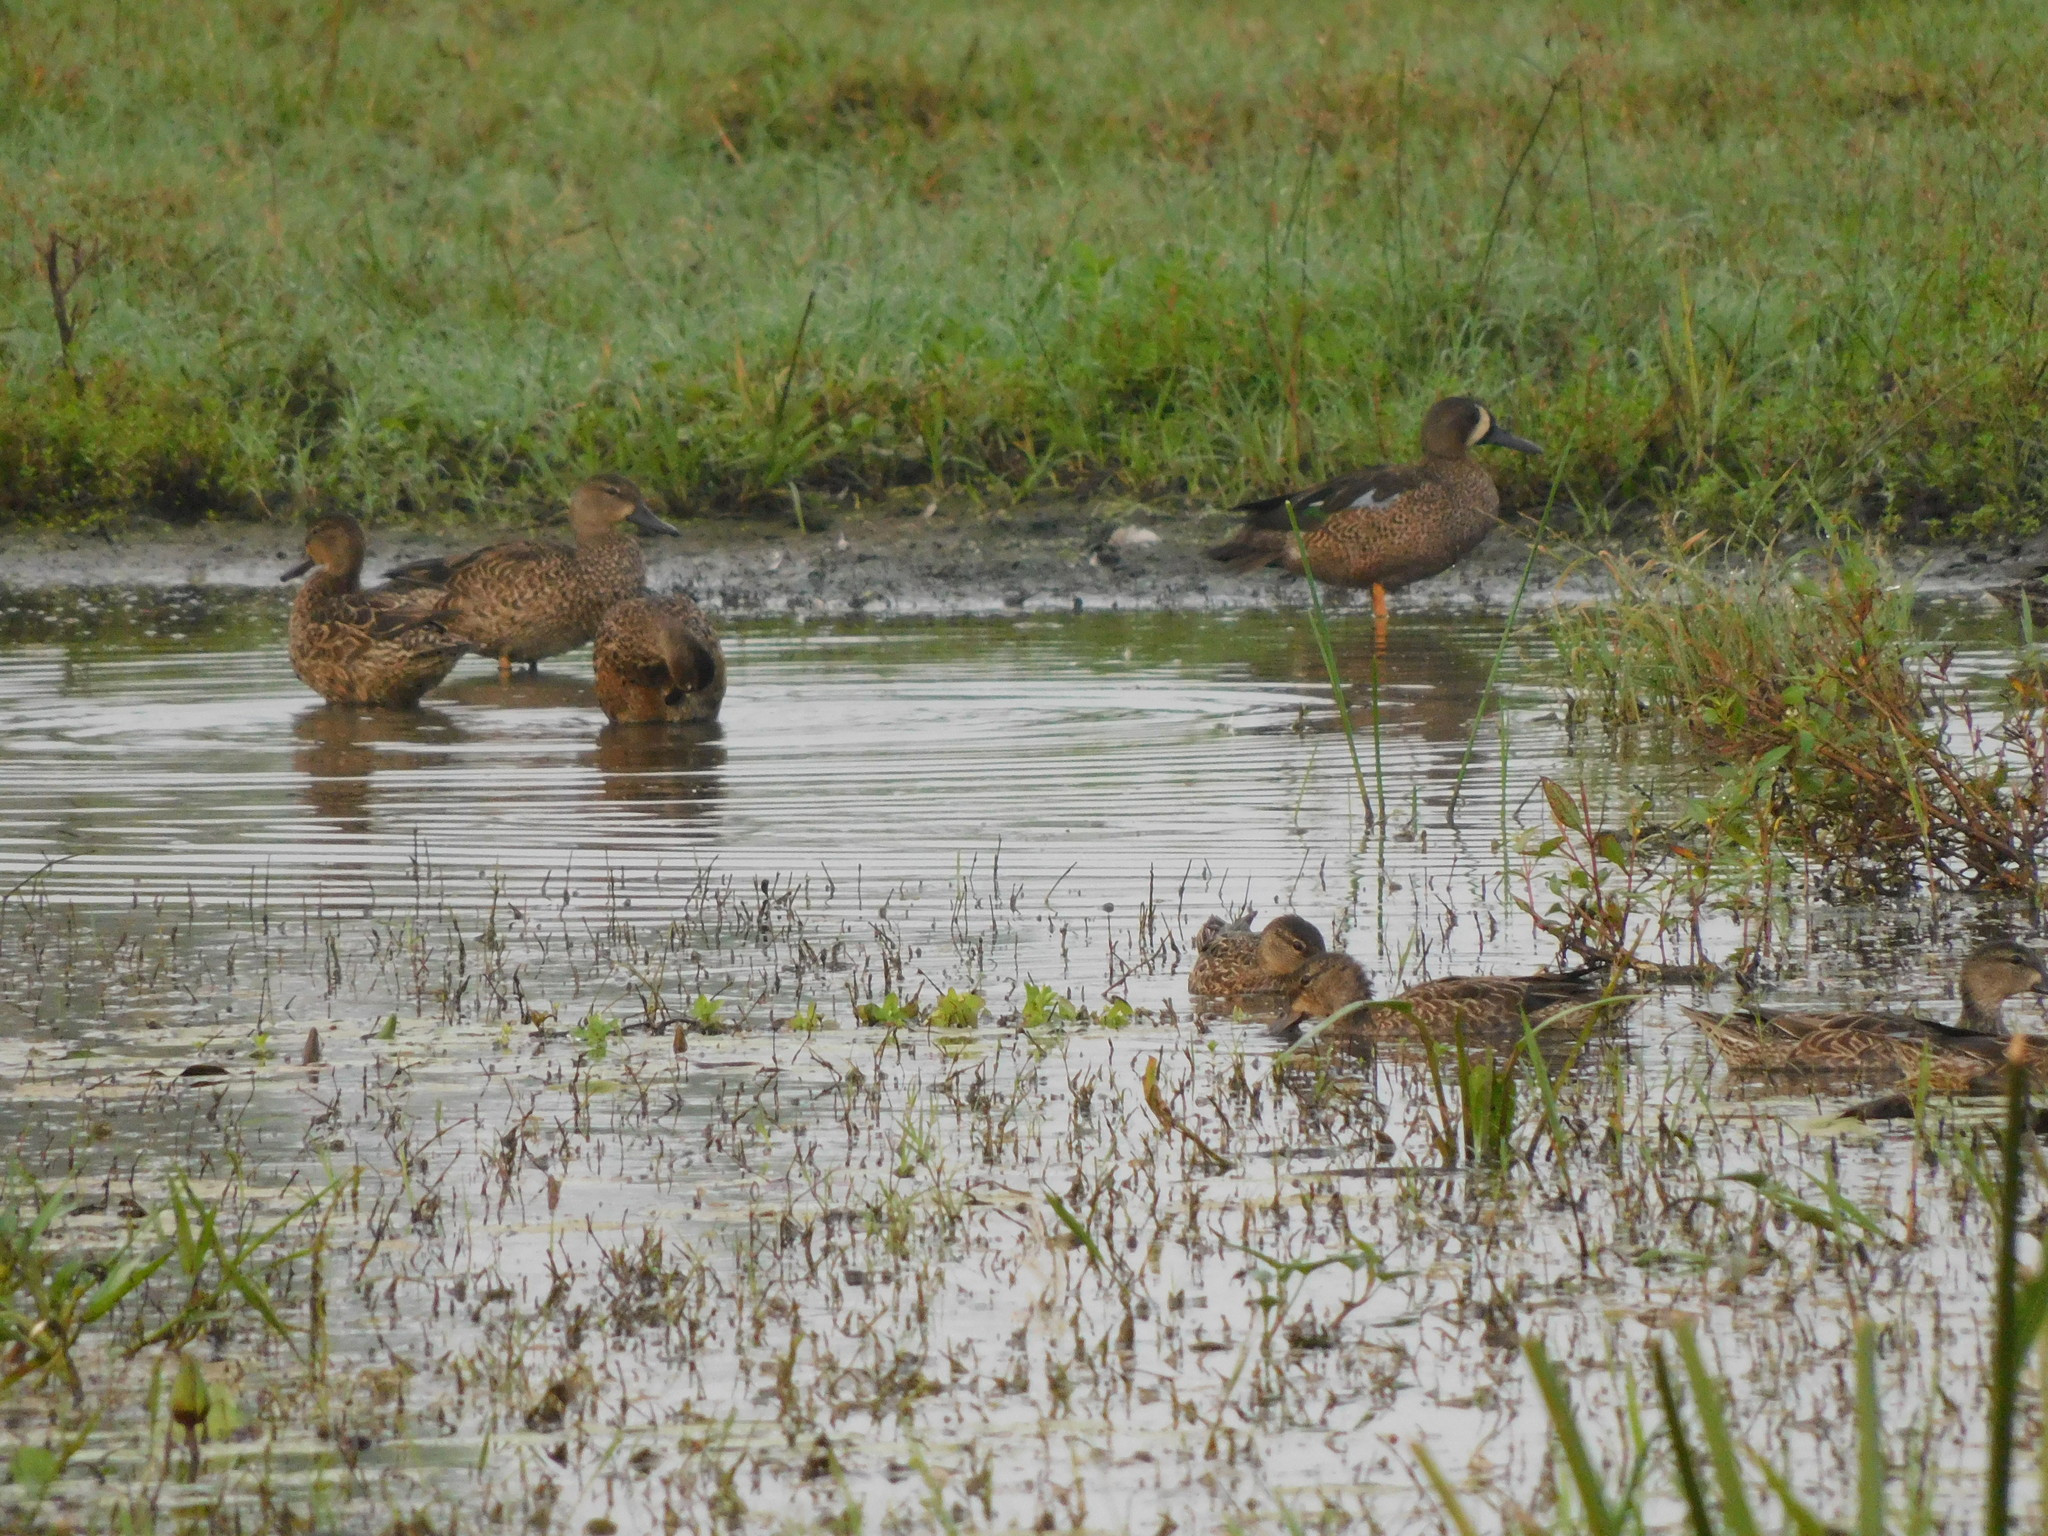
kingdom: Animalia
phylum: Chordata
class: Aves
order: Anseriformes
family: Anatidae
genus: Spatula
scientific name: Spatula discors
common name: Blue-winged teal
